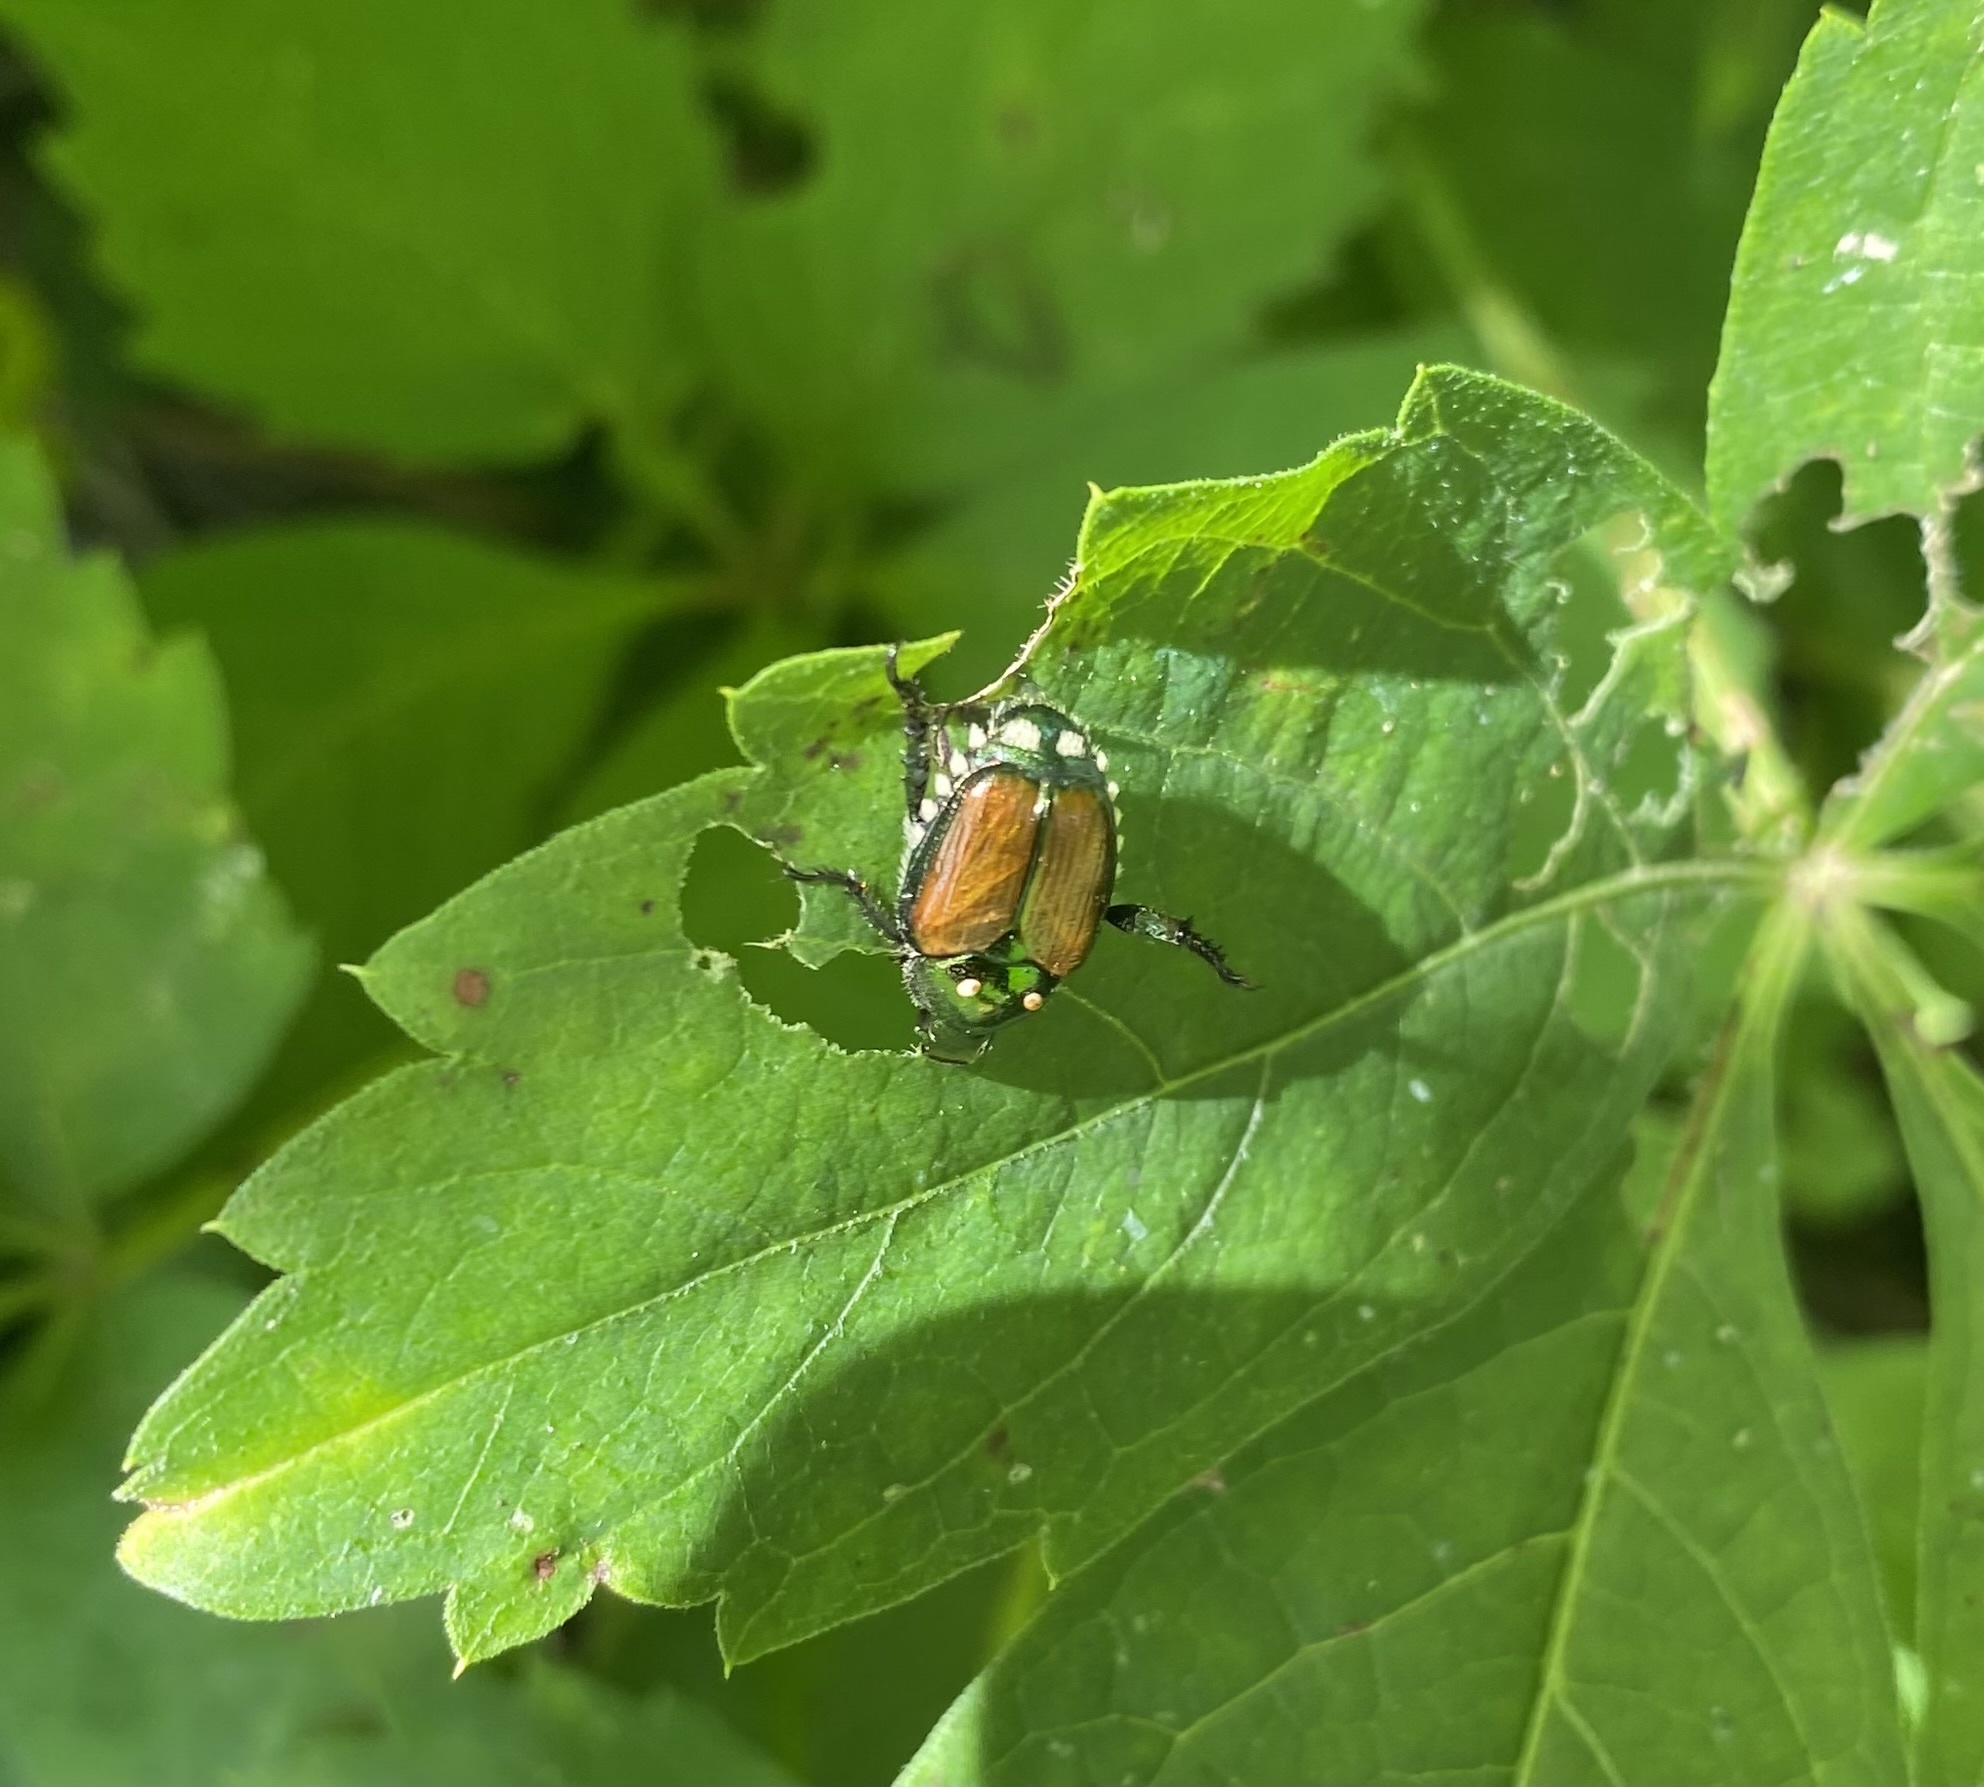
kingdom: Animalia
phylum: Arthropoda
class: Insecta
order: Coleoptera
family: Scarabaeidae
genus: Popillia
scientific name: Popillia japonica
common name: Japanese beetle
